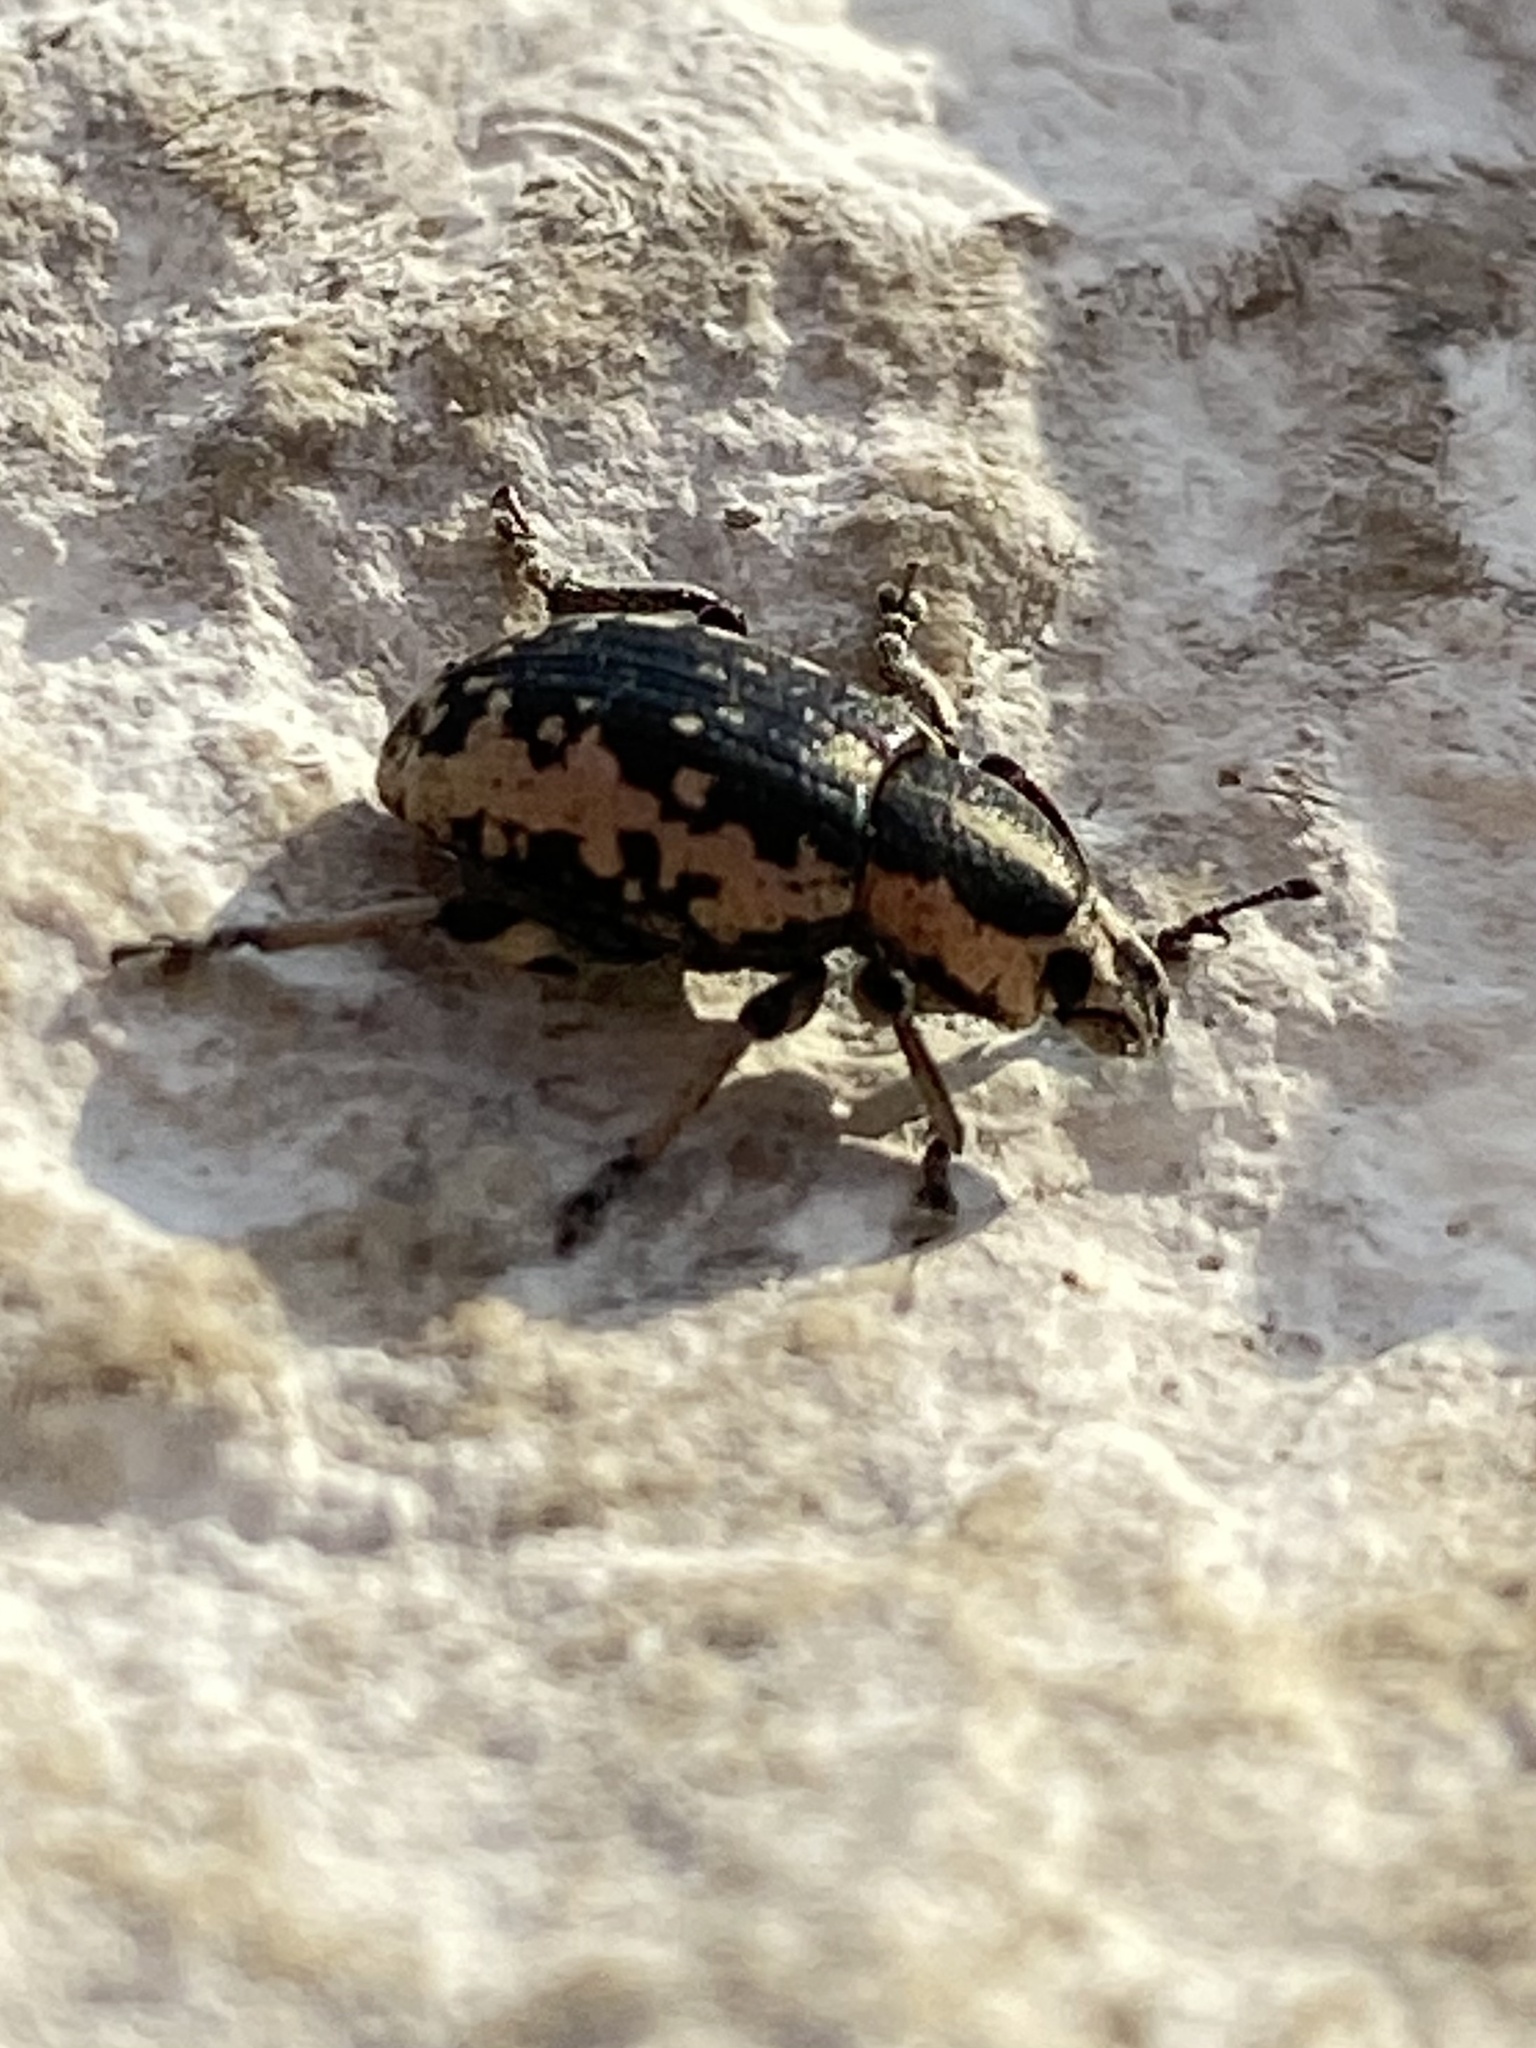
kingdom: Animalia
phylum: Arthropoda
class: Insecta
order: Coleoptera
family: Curculionidae
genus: Eudiagogus
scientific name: Eudiagogus rosenschoeldi
